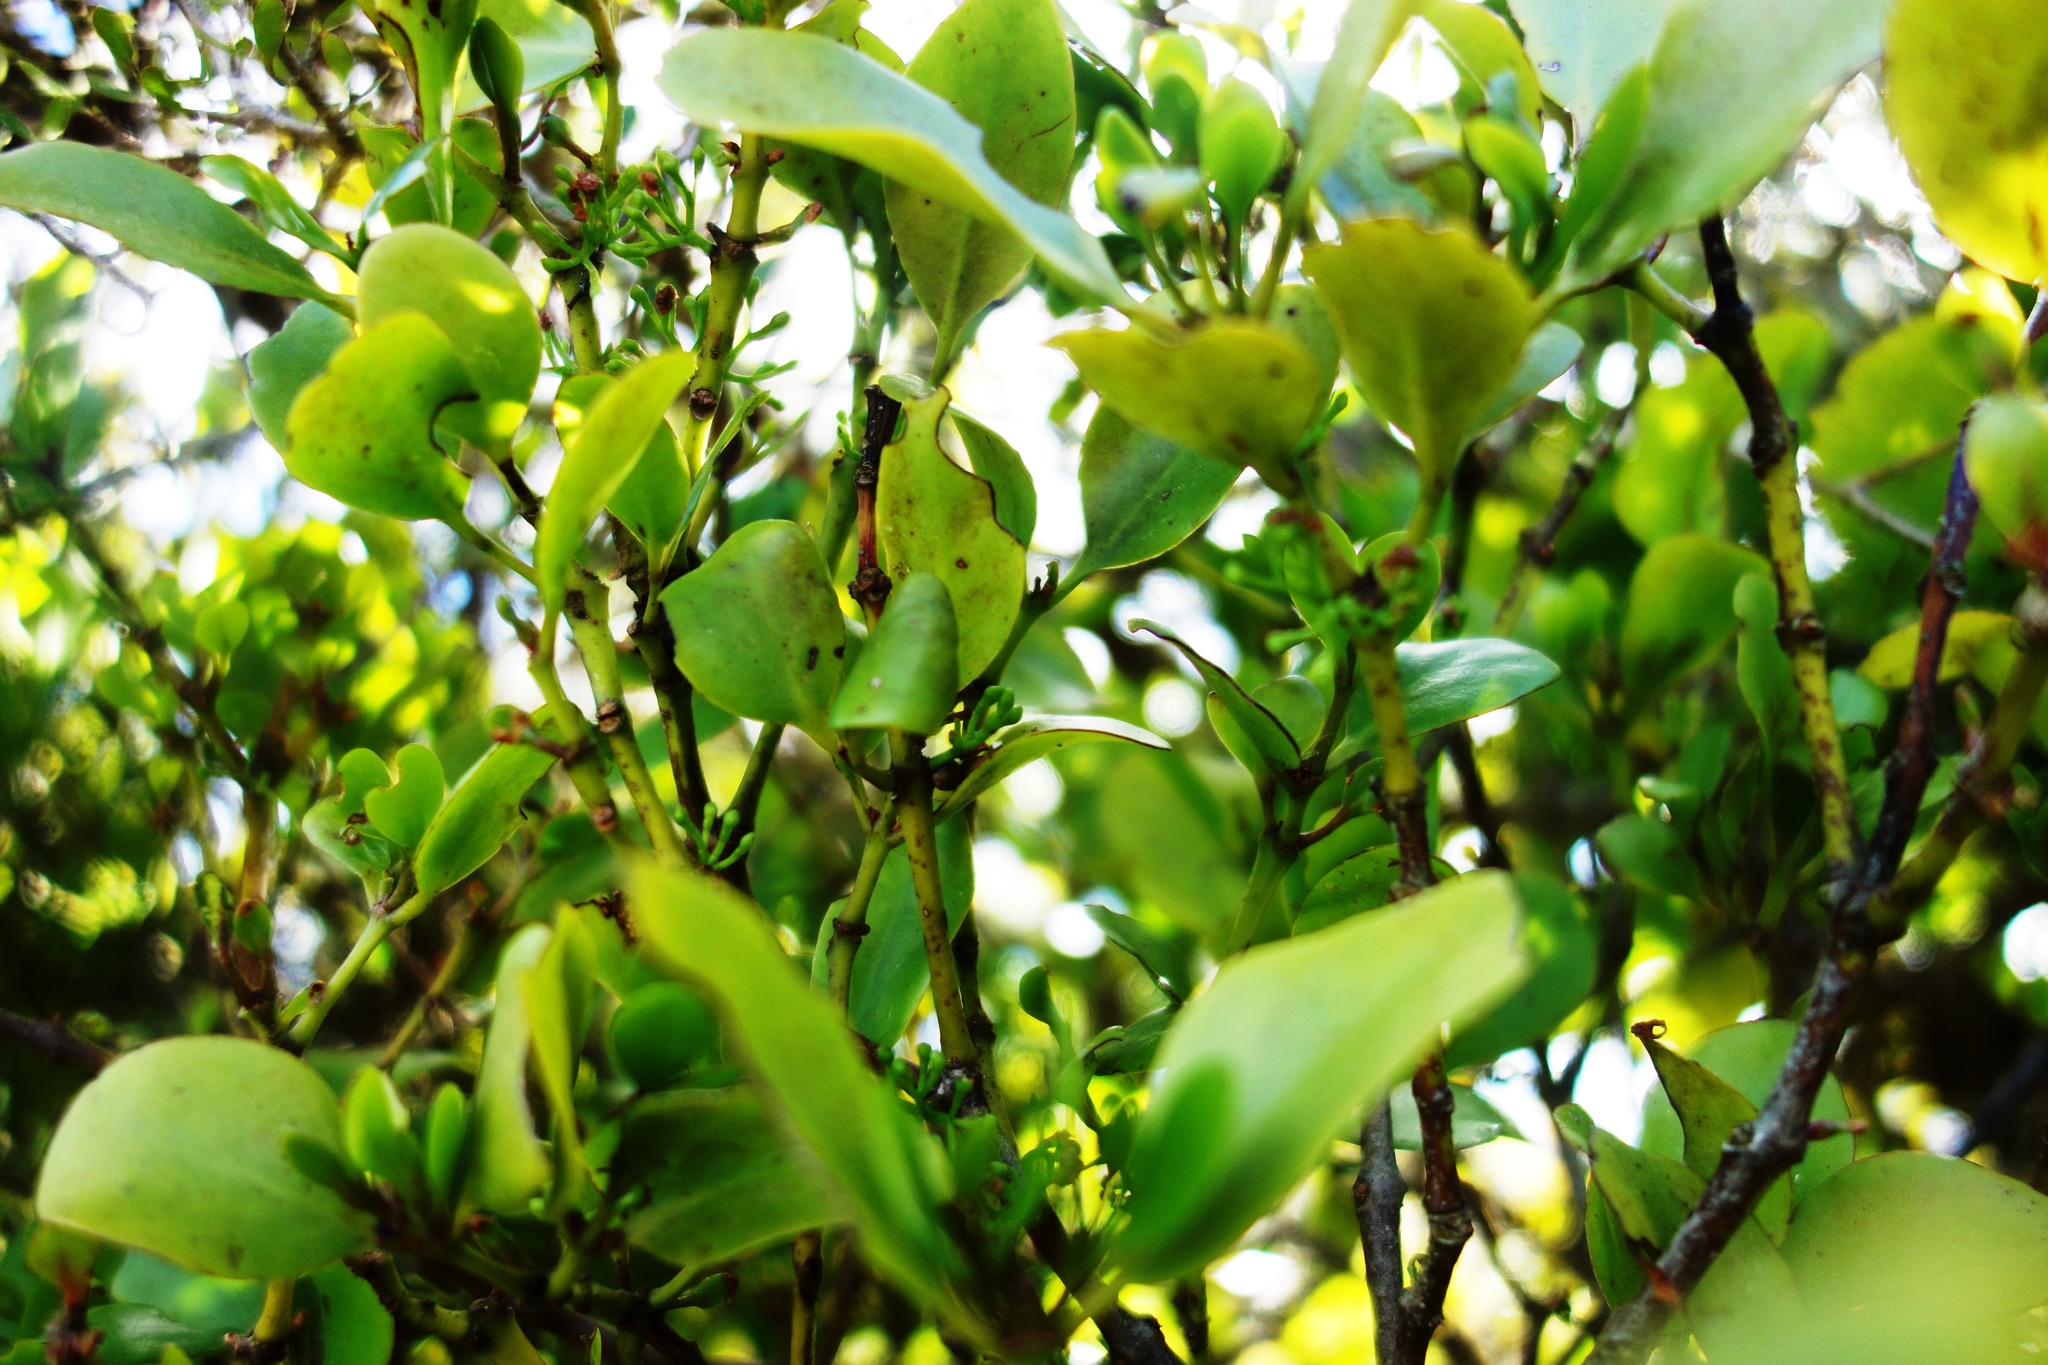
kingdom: Plantae
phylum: Tracheophyta
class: Magnoliopsida
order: Santalales
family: Loranthaceae
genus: Ileostylus
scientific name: Ileostylus micranthus
